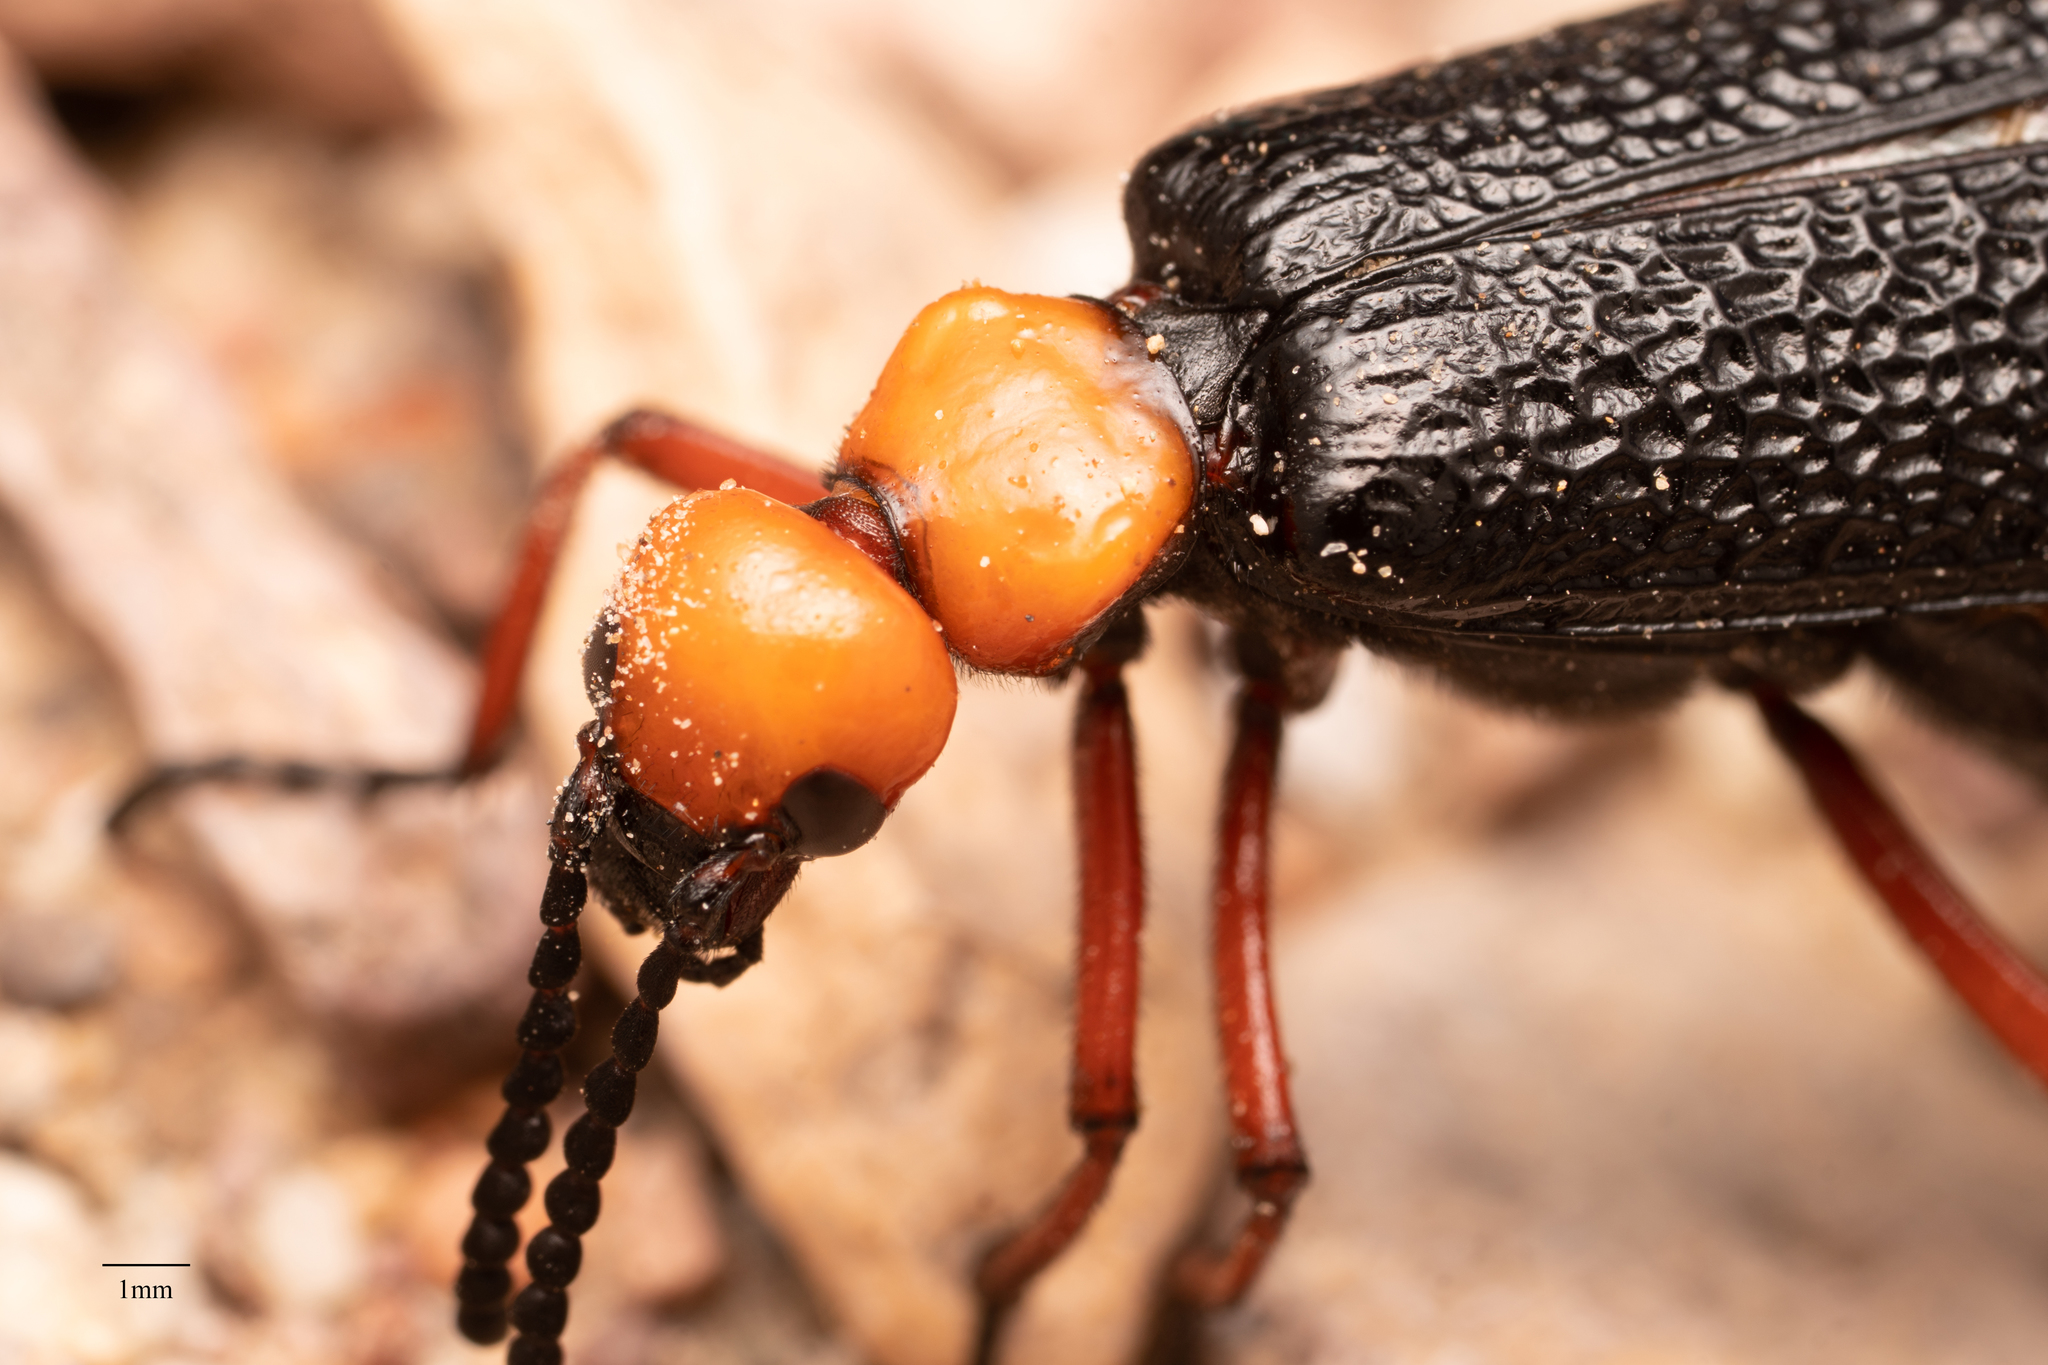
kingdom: Animalia
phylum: Arthropoda
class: Insecta
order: Coleoptera
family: Meloidae
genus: Lytta
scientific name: Lytta magister
